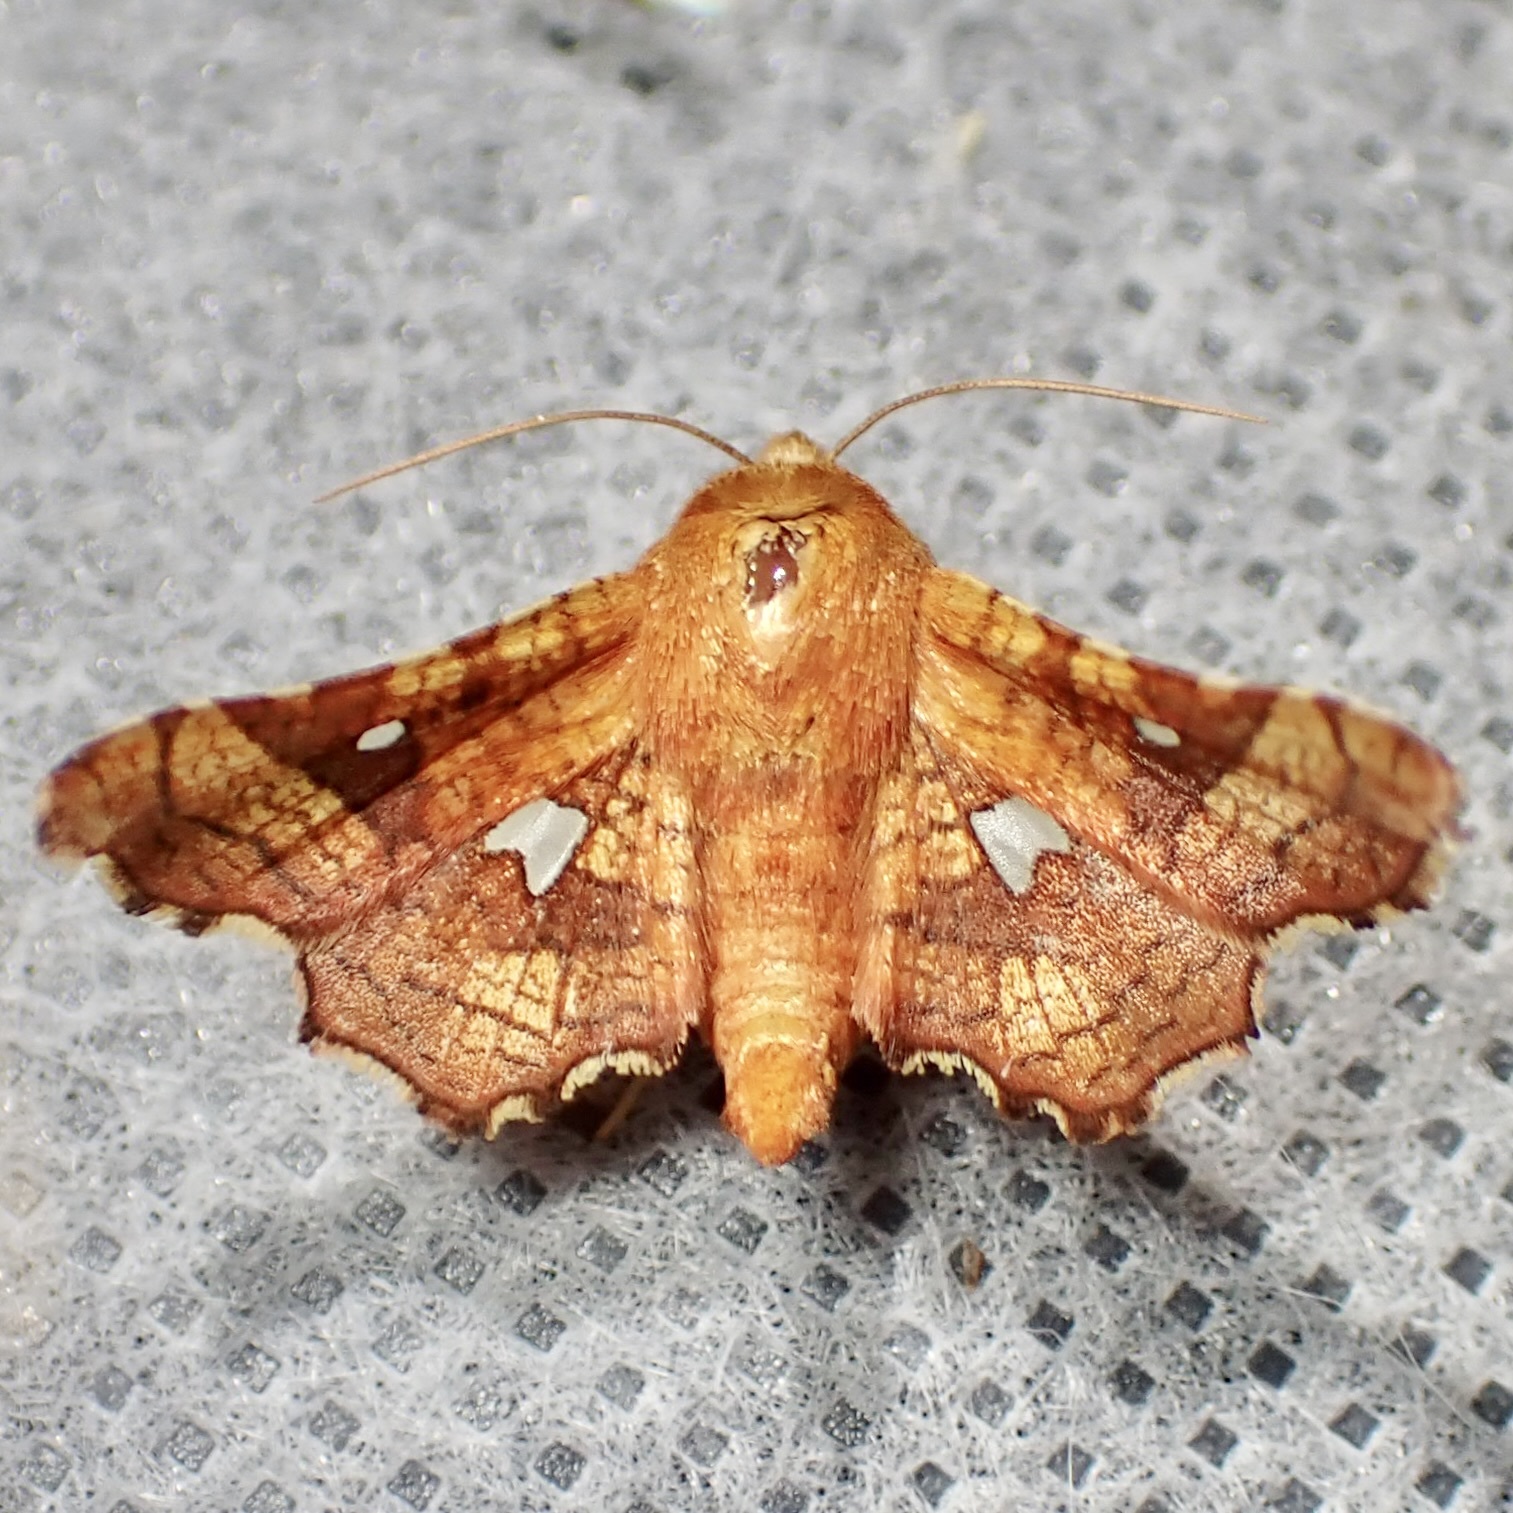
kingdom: Animalia
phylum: Arthropoda
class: Insecta
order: Lepidoptera
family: Thyrididae
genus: Dysodia
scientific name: Dysodia granulata
